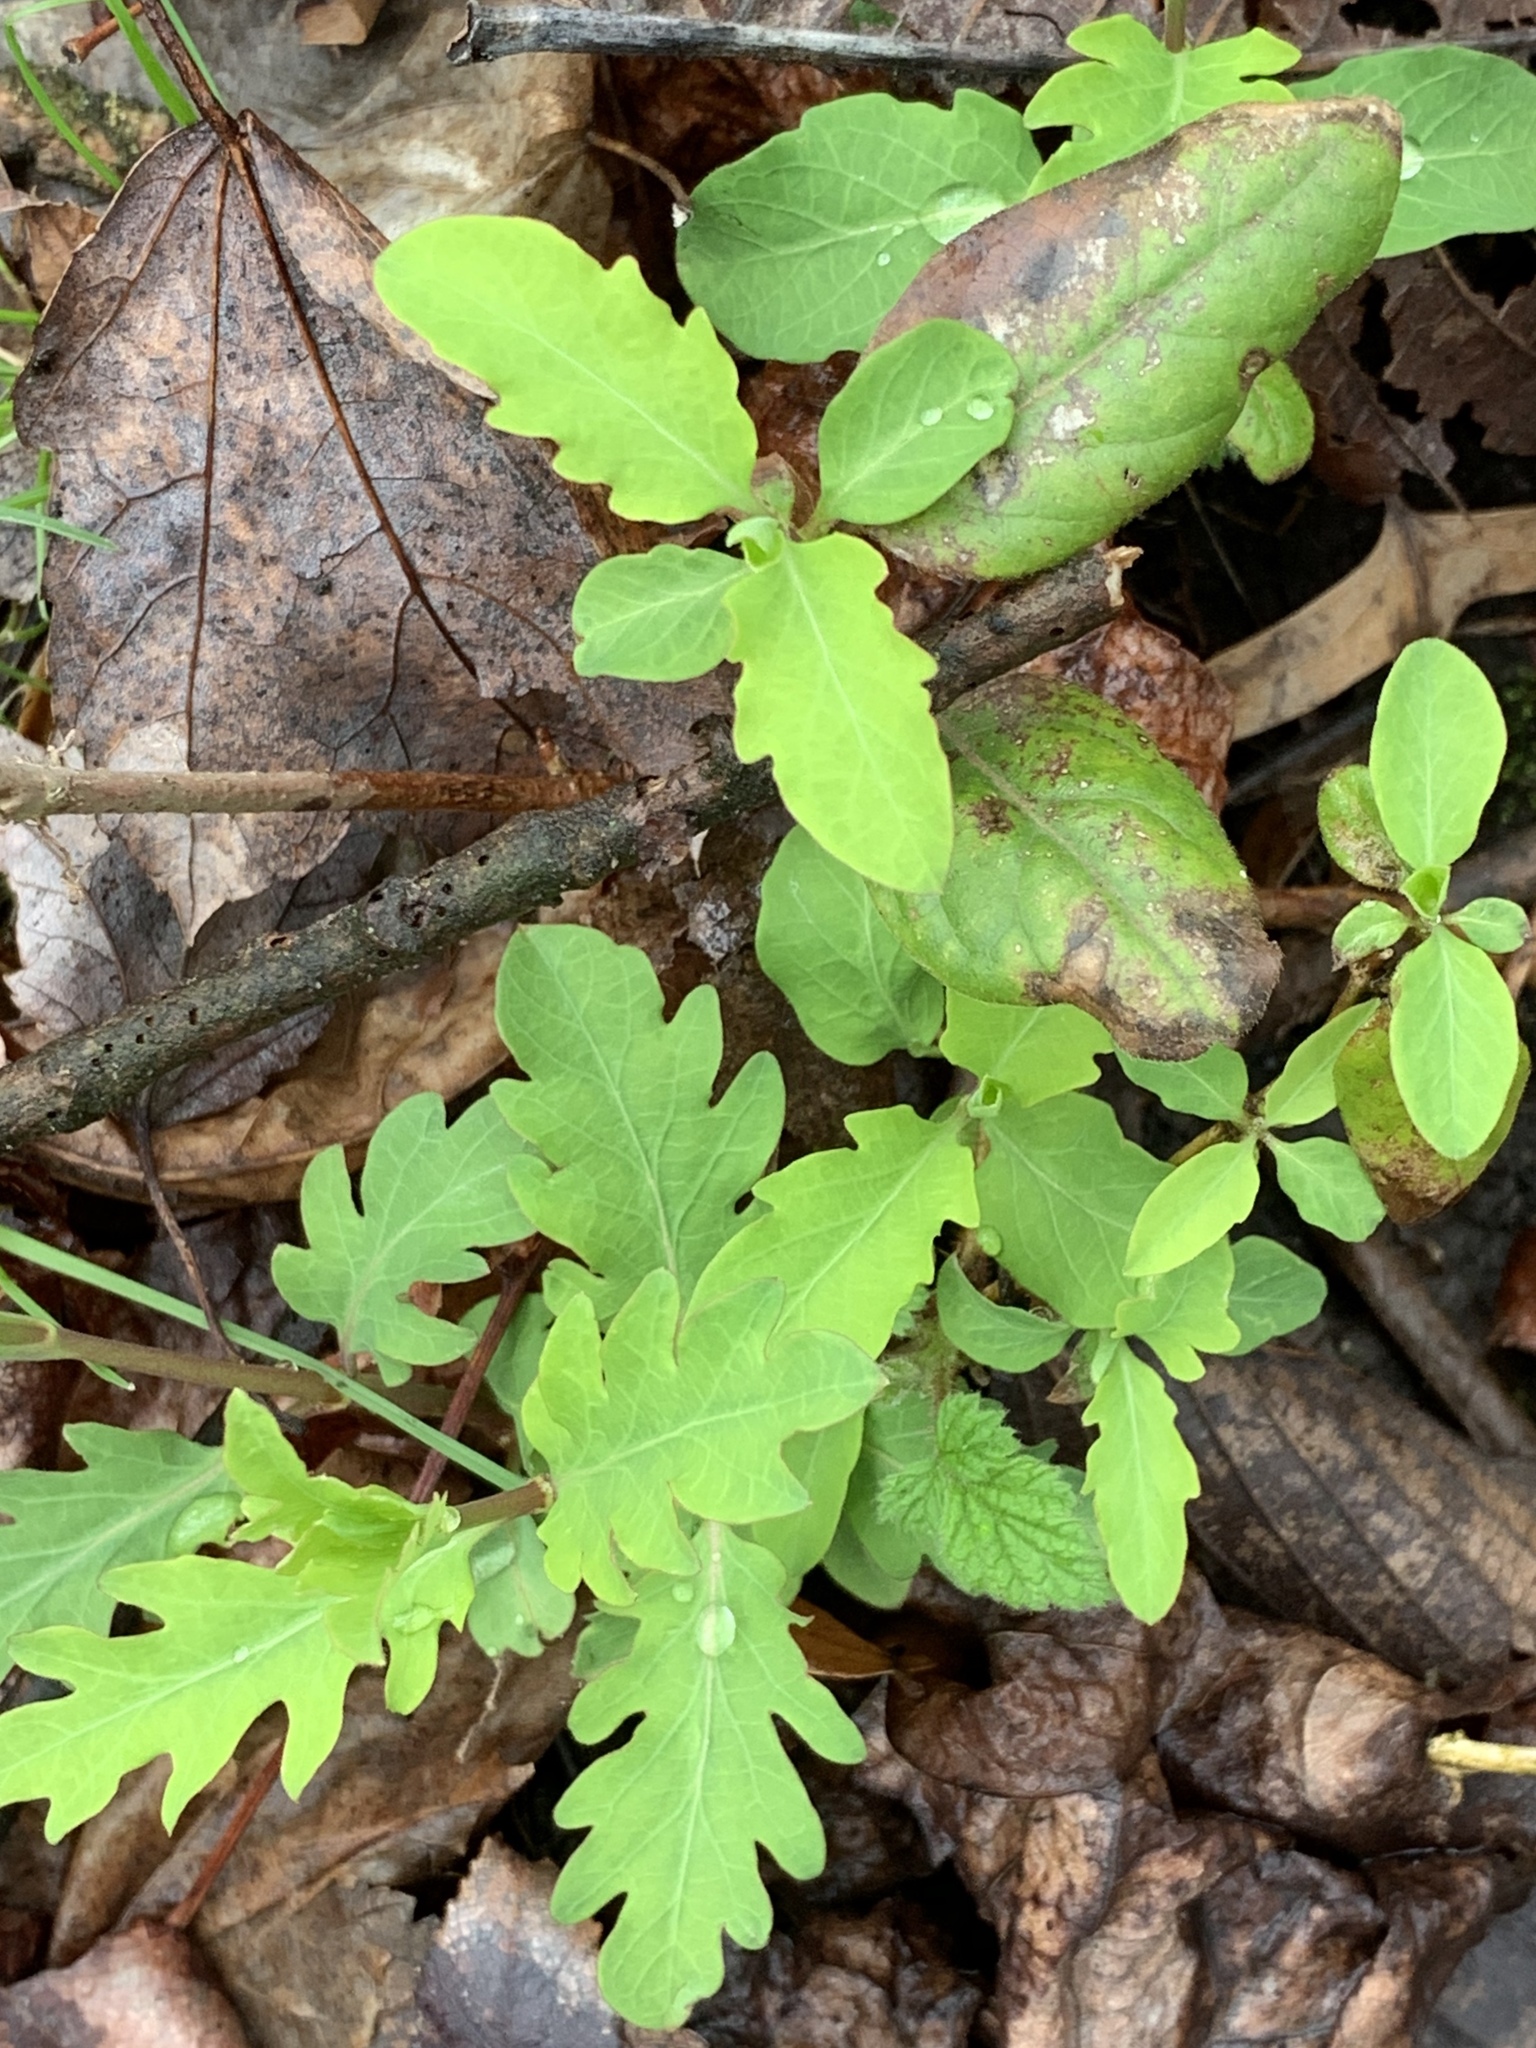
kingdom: Plantae
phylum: Tracheophyta
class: Magnoliopsida
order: Dipsacales
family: Caprifoliaceae
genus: Lonicera
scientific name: Lonicera japonica
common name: Japanese honeysuckle
